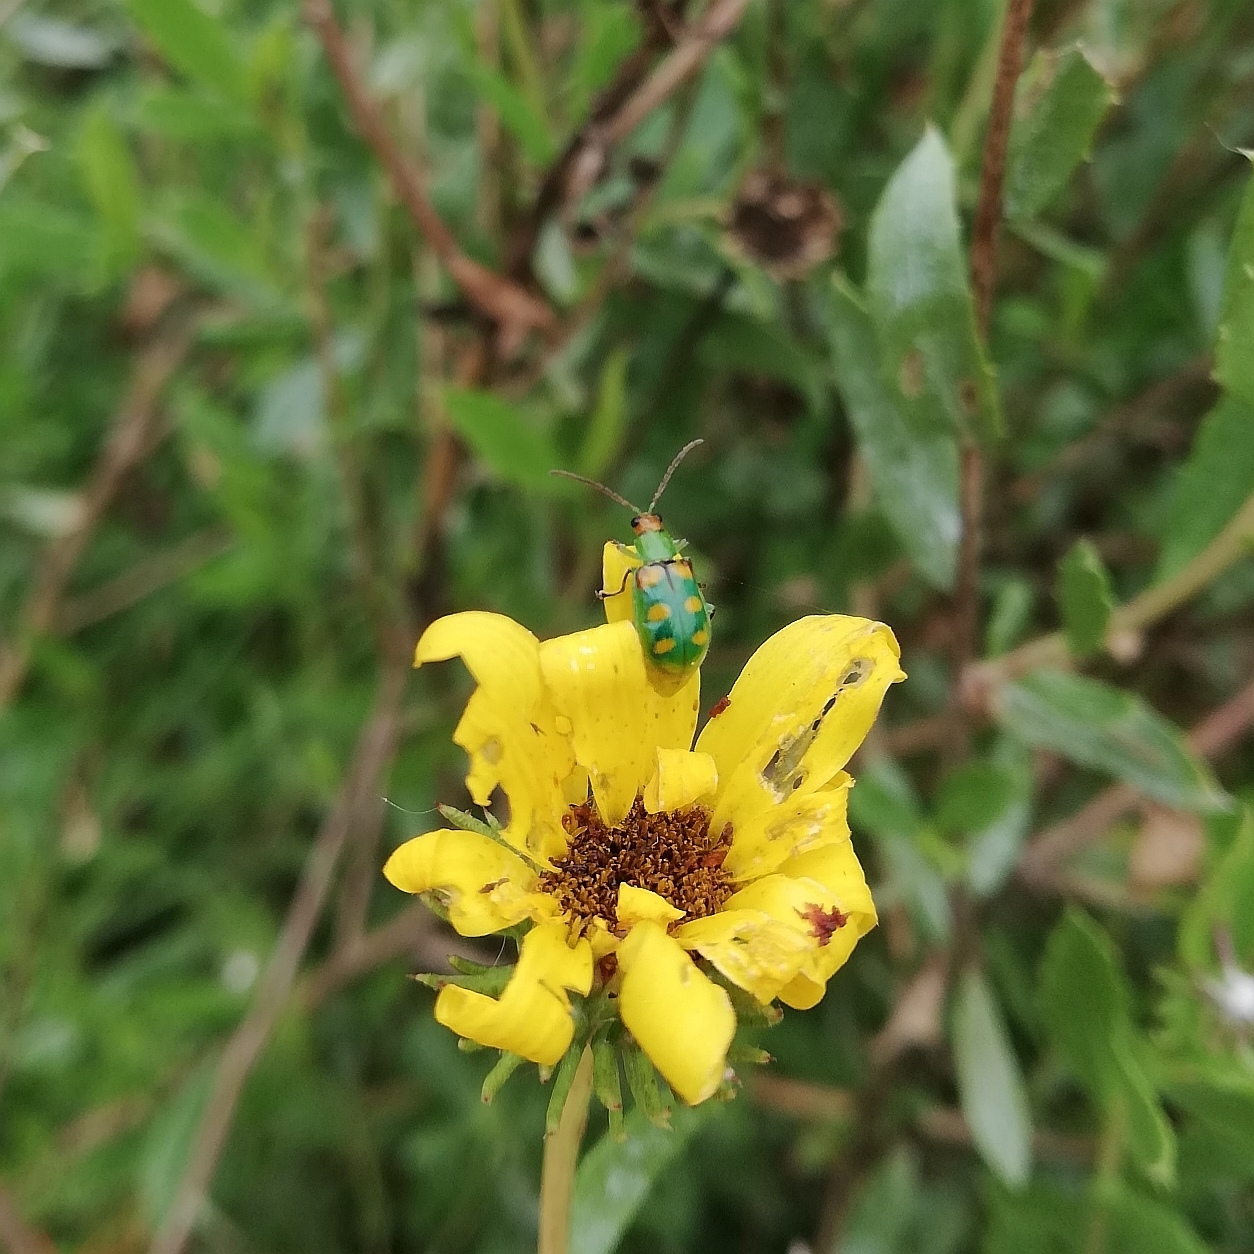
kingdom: Animalia
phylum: Arthropoda
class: Insecta
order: Coleoptera
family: Chrysomelidae
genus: Diabrotica
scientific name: Diabrotica speciosa
